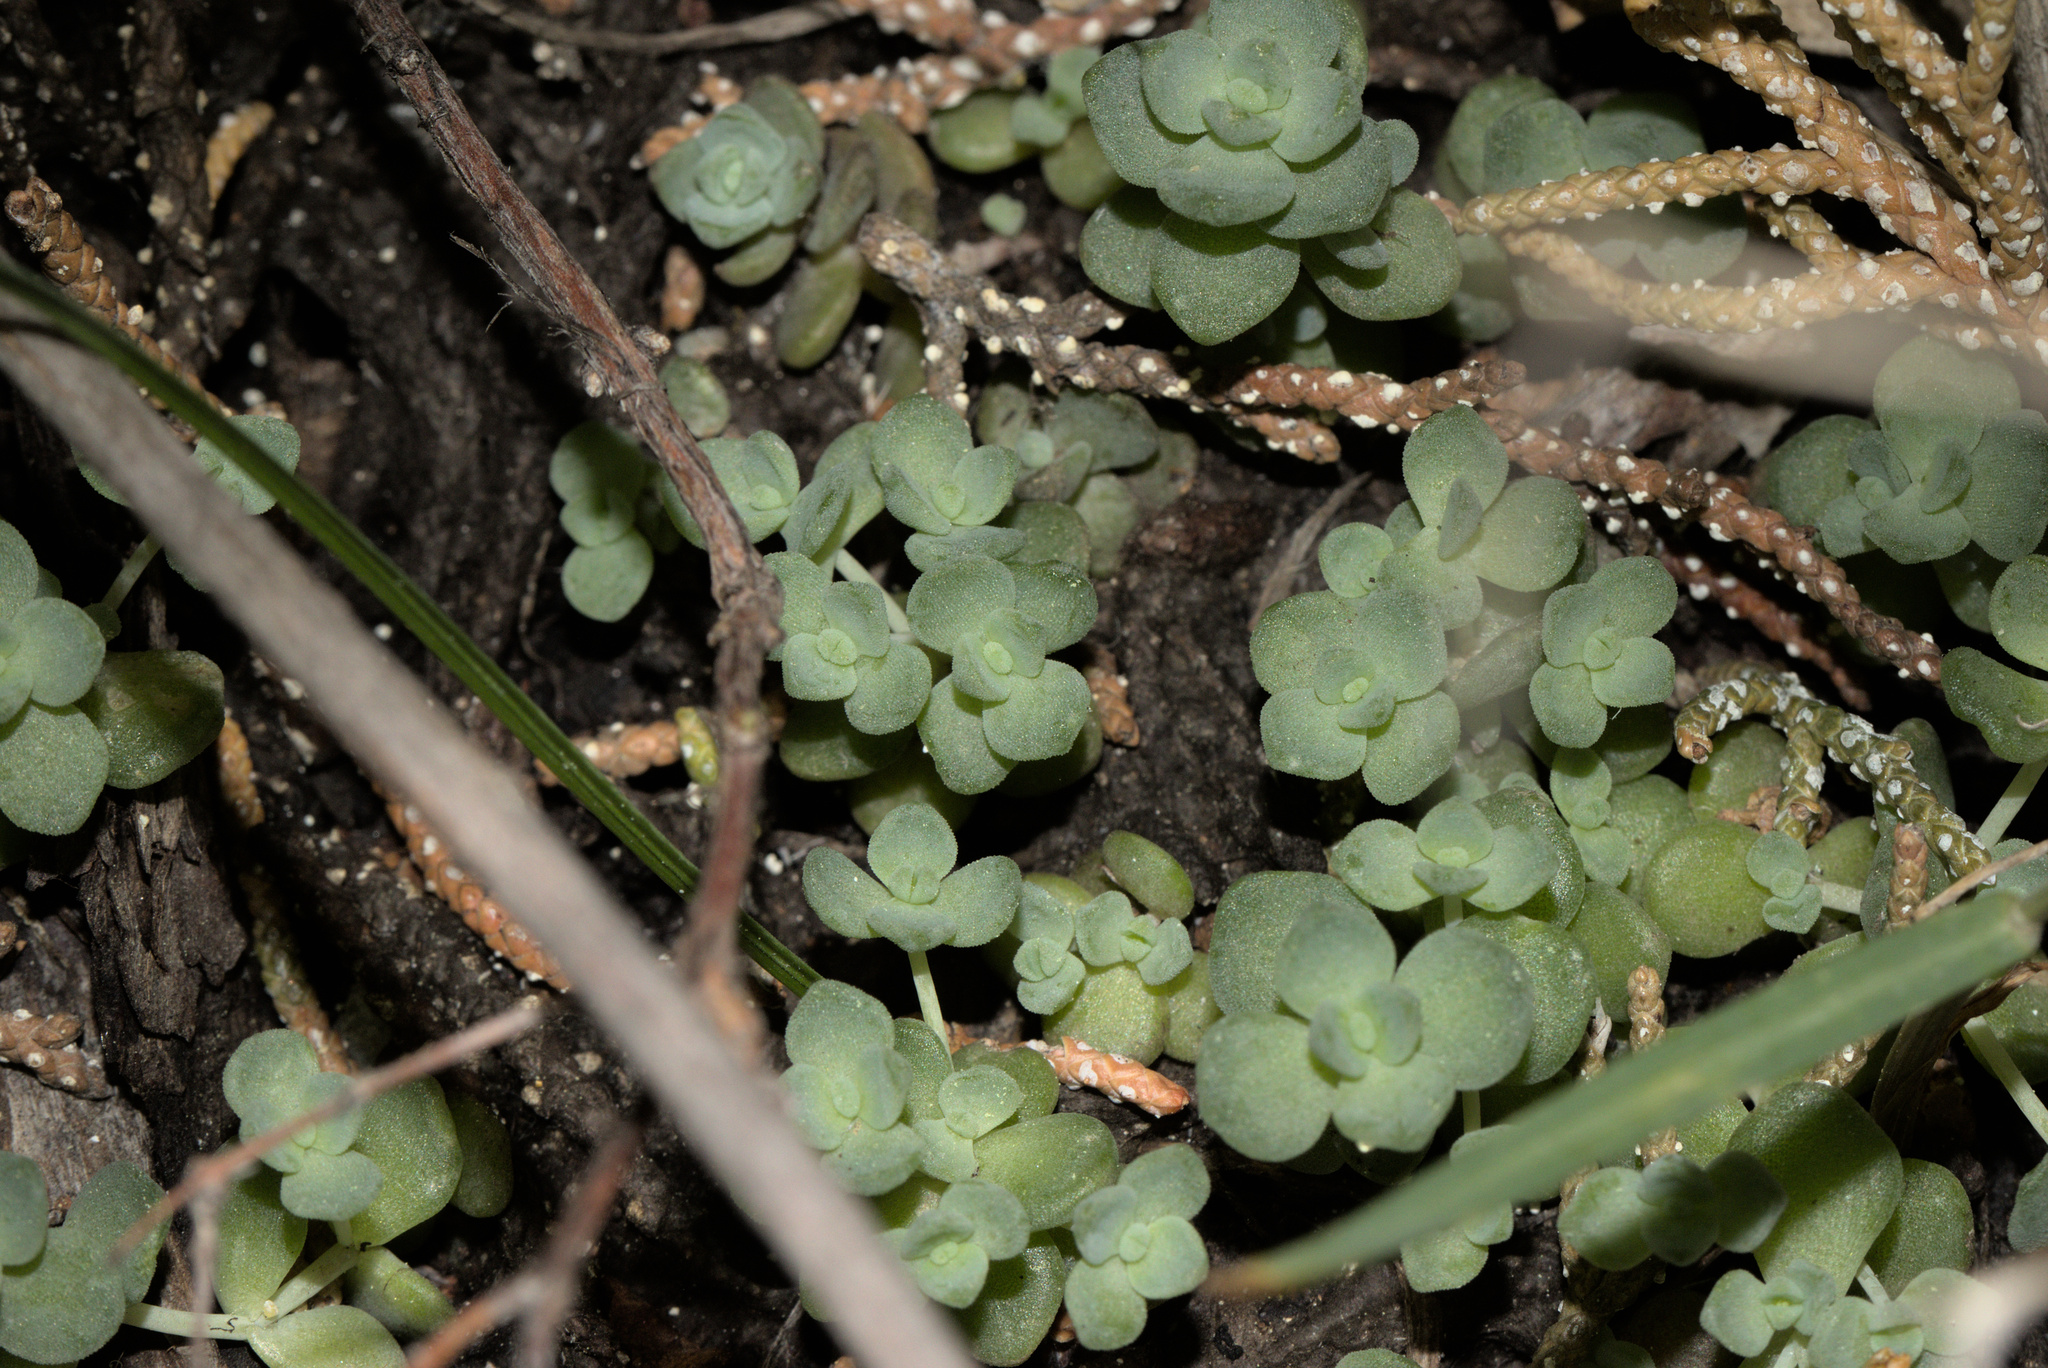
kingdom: Plantae
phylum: Tracheophyta
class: Magnoliopsida
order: Saxifragales
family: Crassulaceae
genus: Sedum
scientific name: Sedum debile
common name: Weak-stem stonecrop
